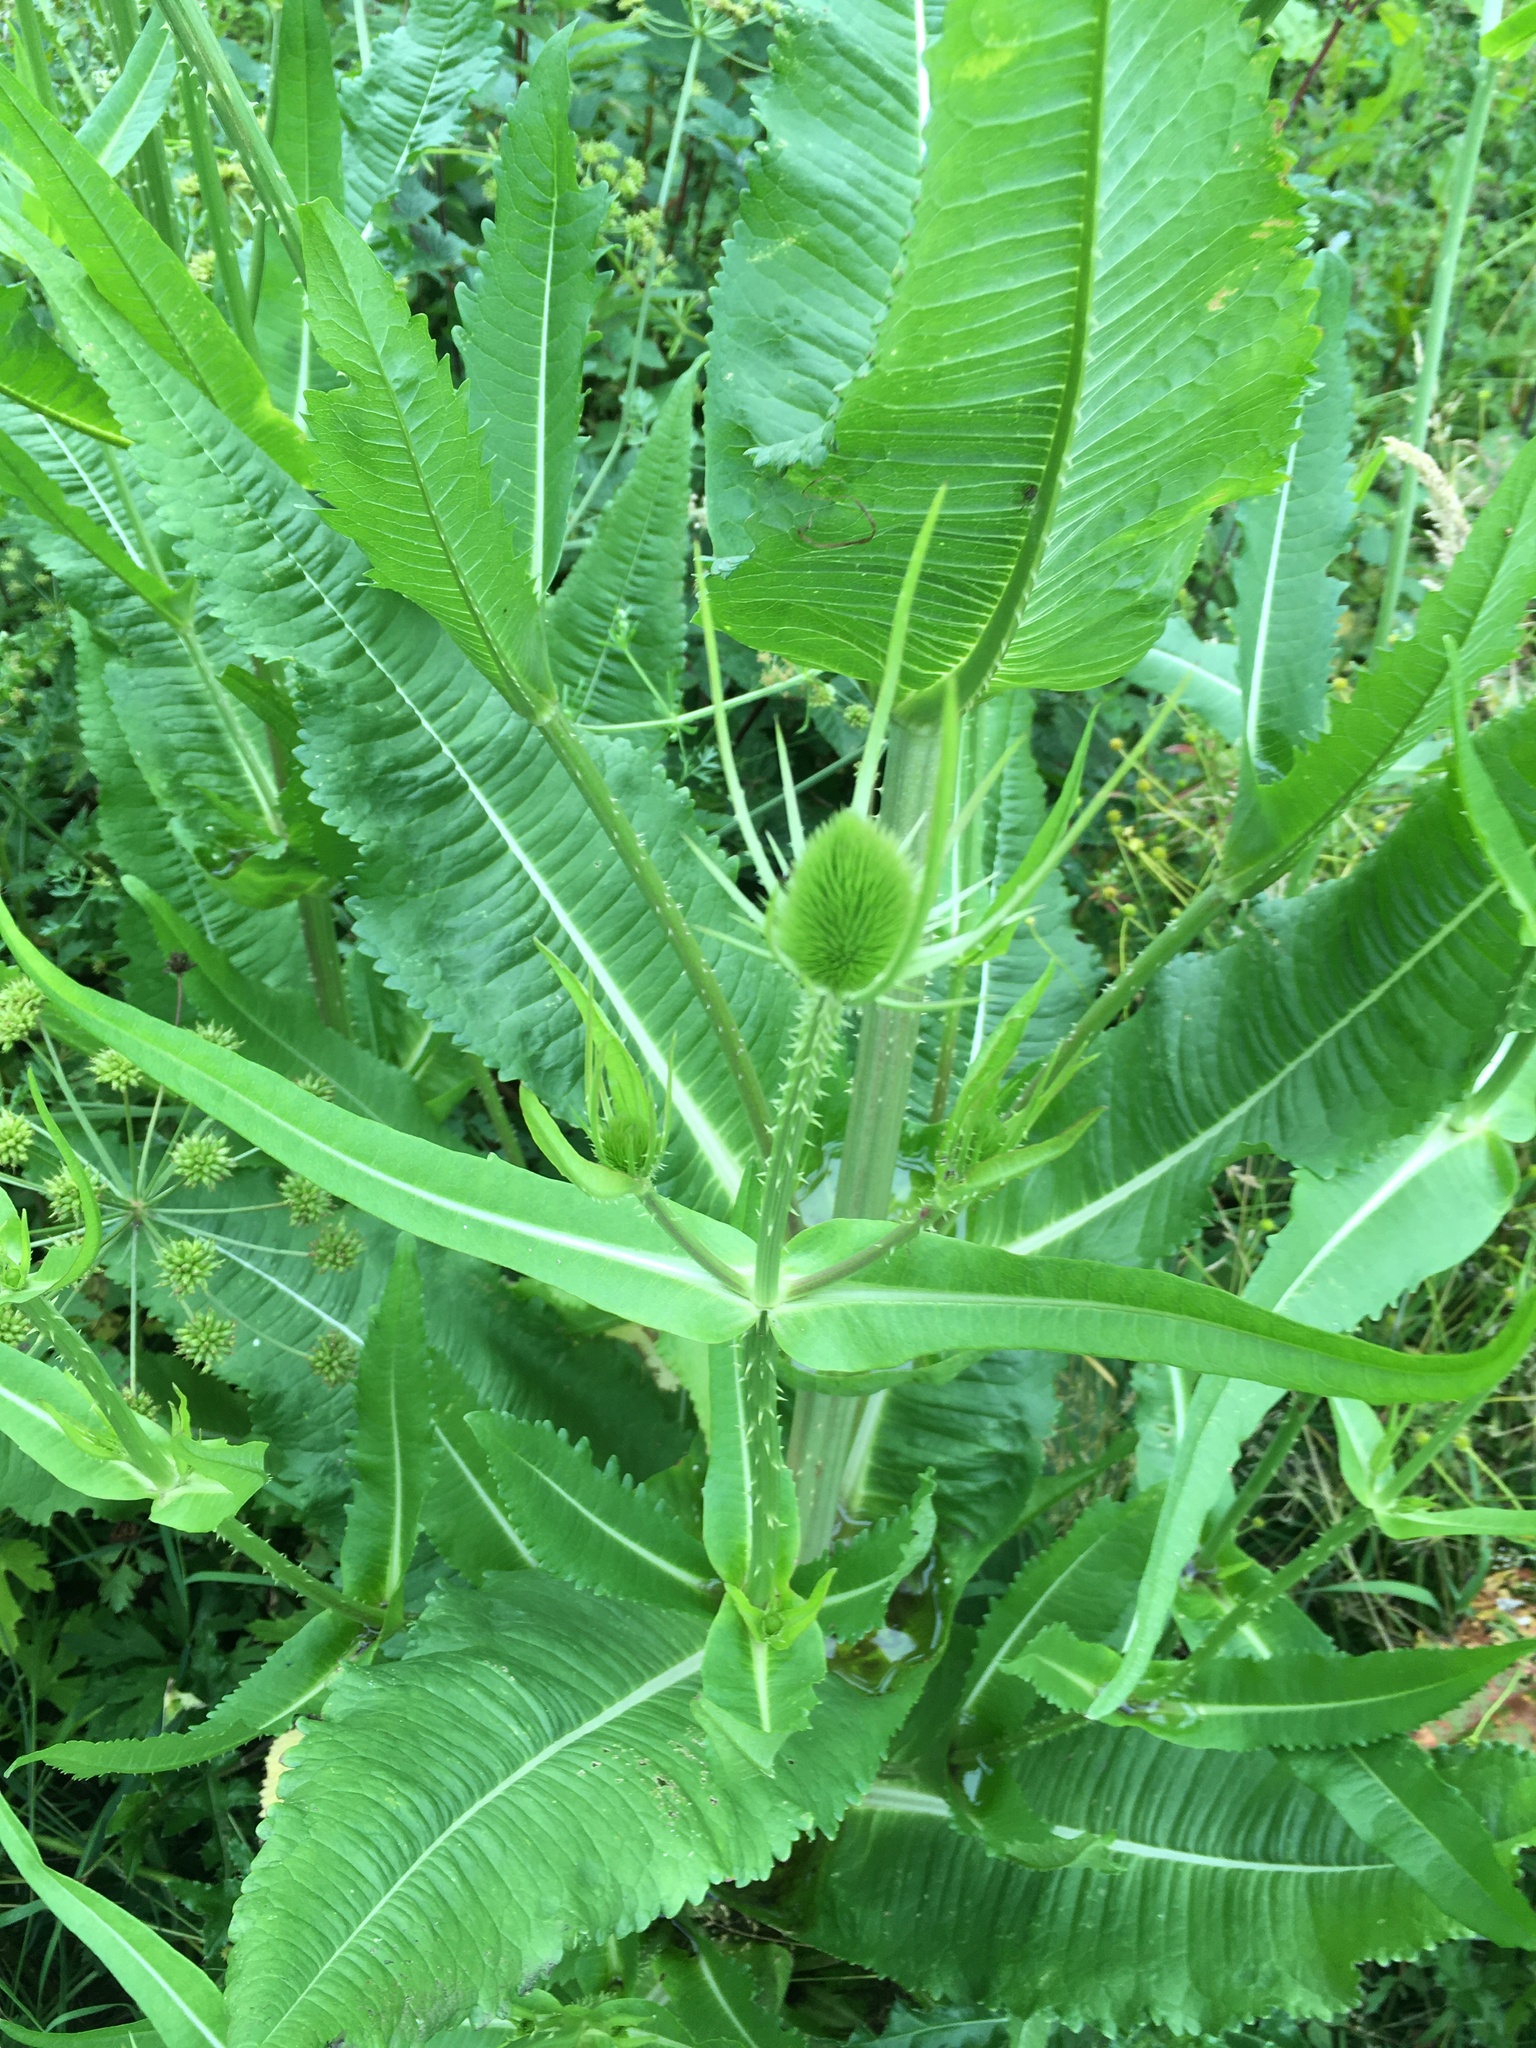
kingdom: Plantae
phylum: Tracheophyta
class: Magnoliopsida
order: Dipsacales
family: Caprifoliaceae
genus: Dipsacus
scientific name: Dipsacus fullonum
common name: Teasel
